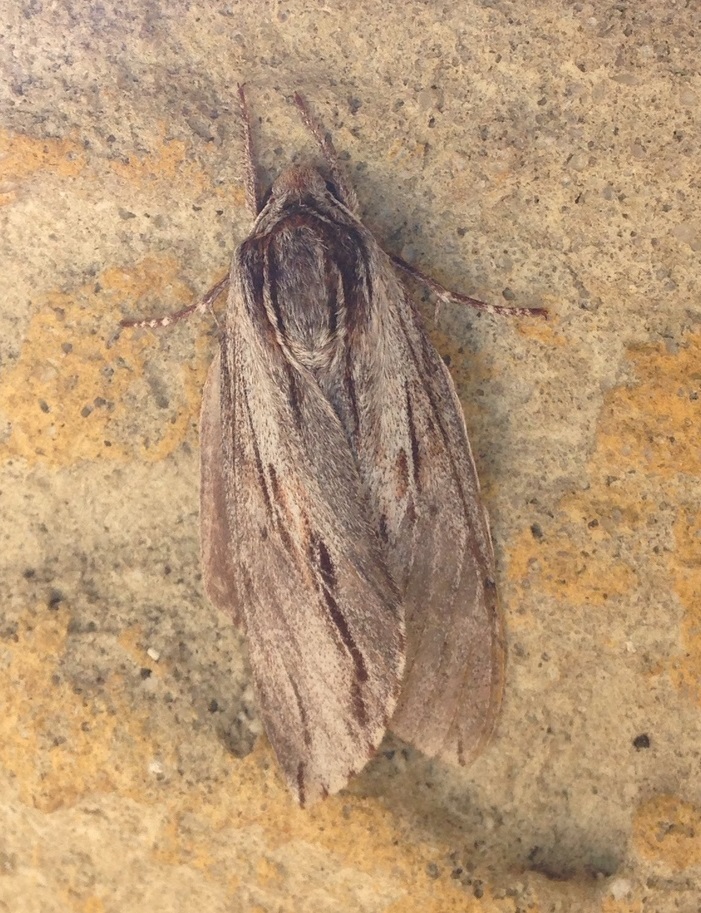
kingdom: Animalia
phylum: Arthropoda
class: Insecta
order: Lepidoptera
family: Sphingidae
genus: Isoparce
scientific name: Isoparce cupressi
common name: Cypress sphinx
